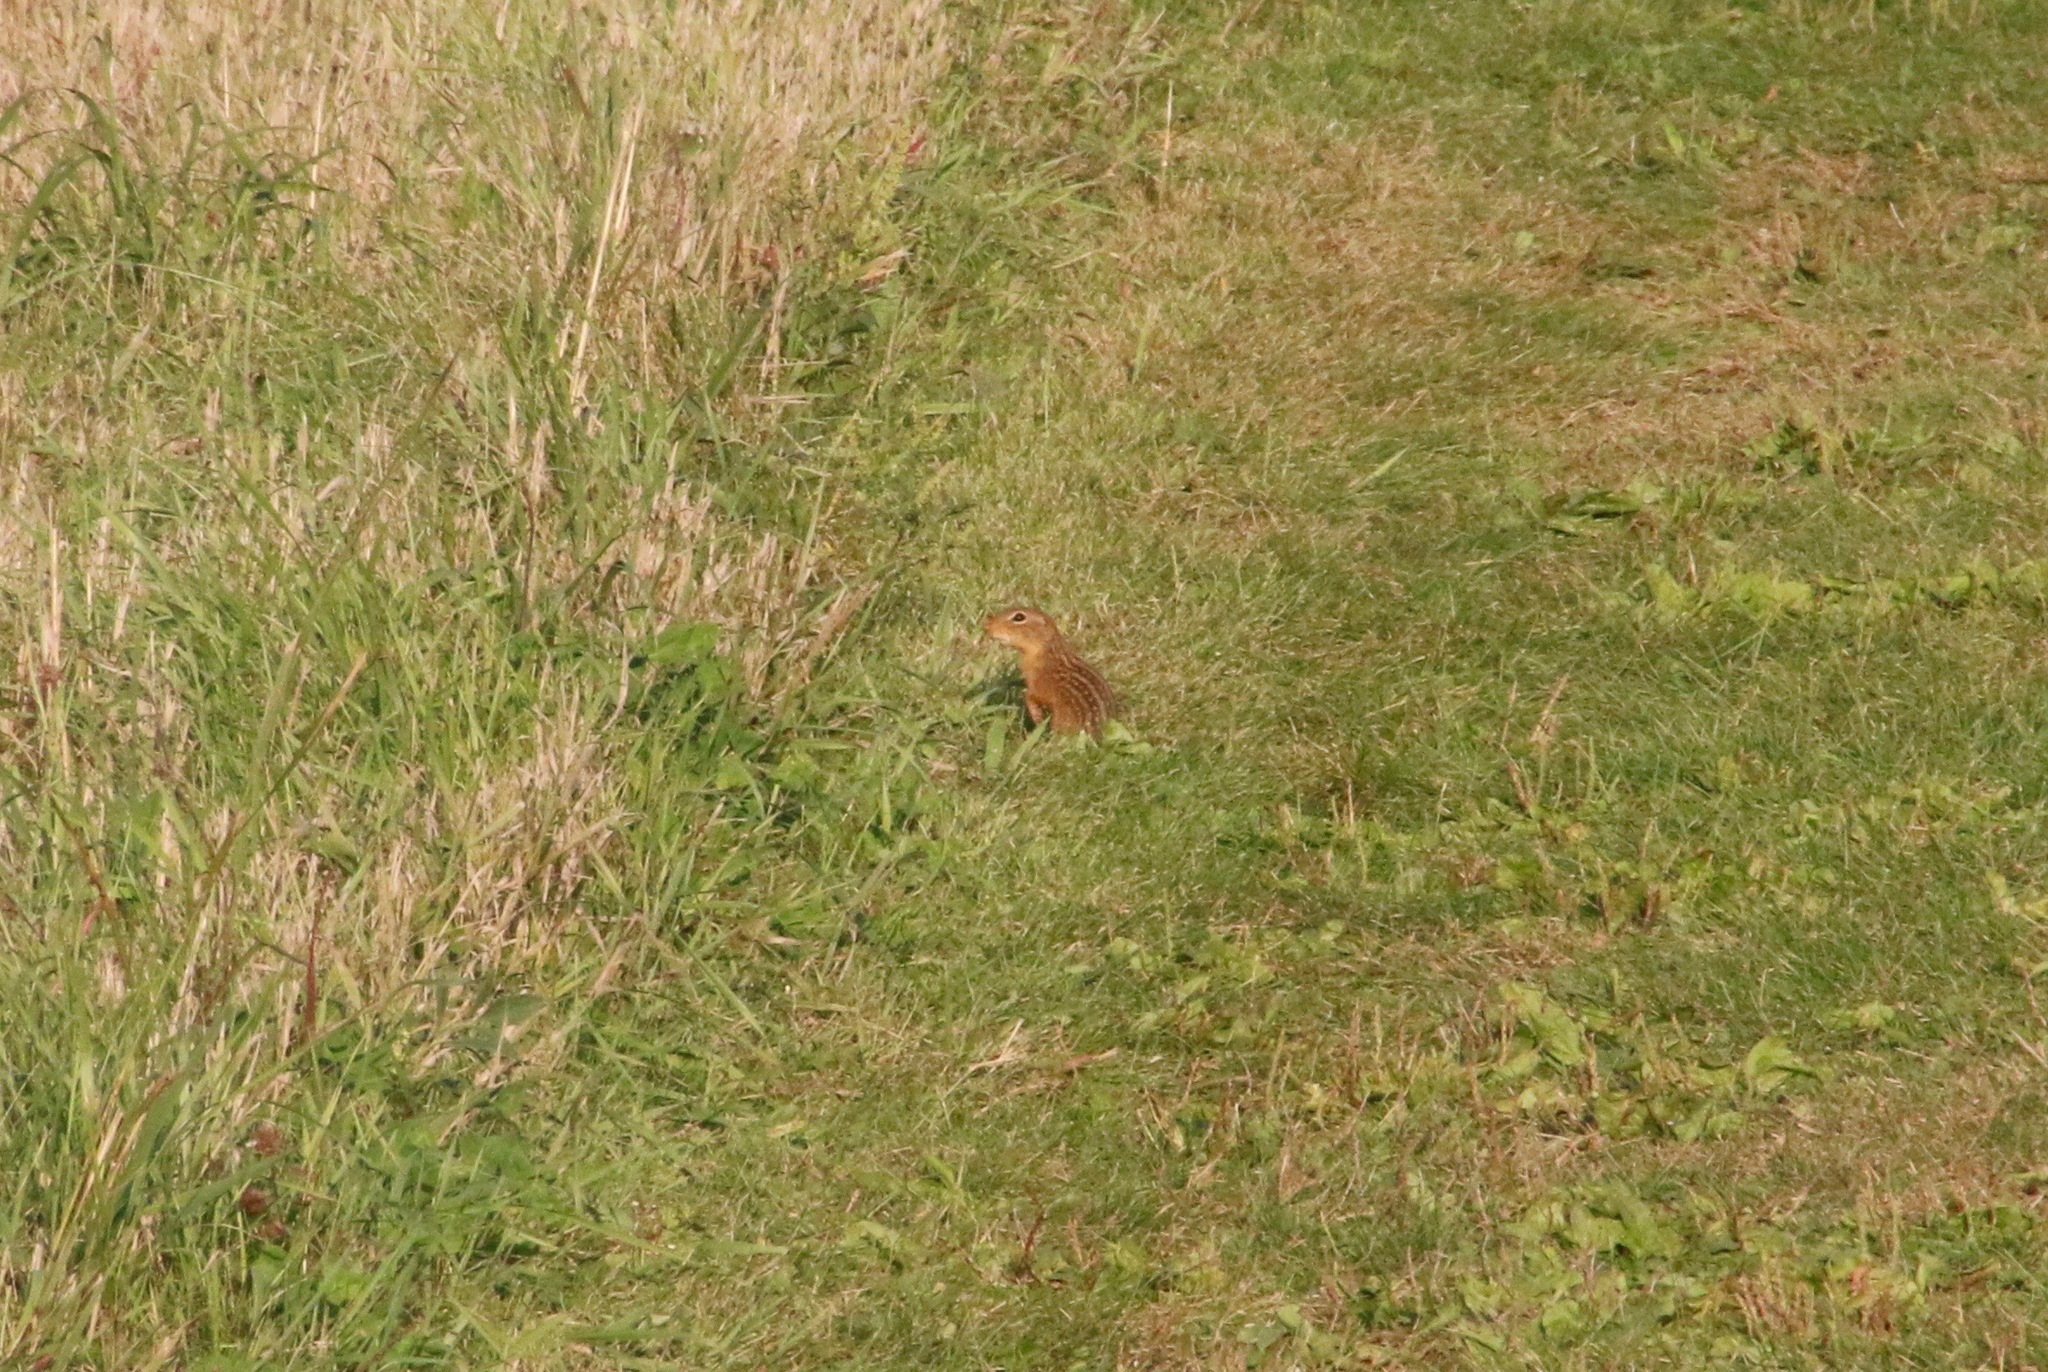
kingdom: Animalia
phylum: Chordata
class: Mammalia
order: Rodentia
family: Sciuridae
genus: Ictidomys
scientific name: Ictidomys tridecemlineatus
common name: Thirteen-lined ground squirrel
